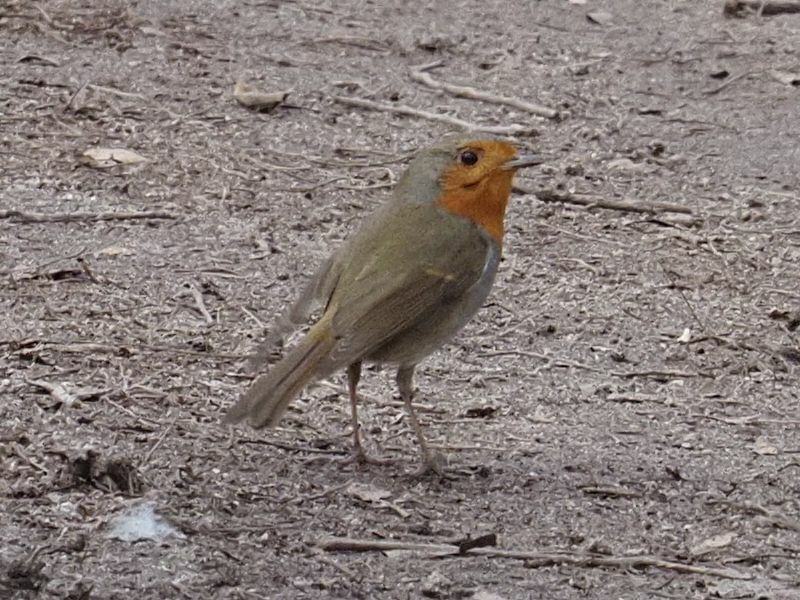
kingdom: Animalia
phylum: Chordata
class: Aves
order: Passeriformes
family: Muscicapidae
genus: Erithacus
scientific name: Erithacus rubecula
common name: European robin
